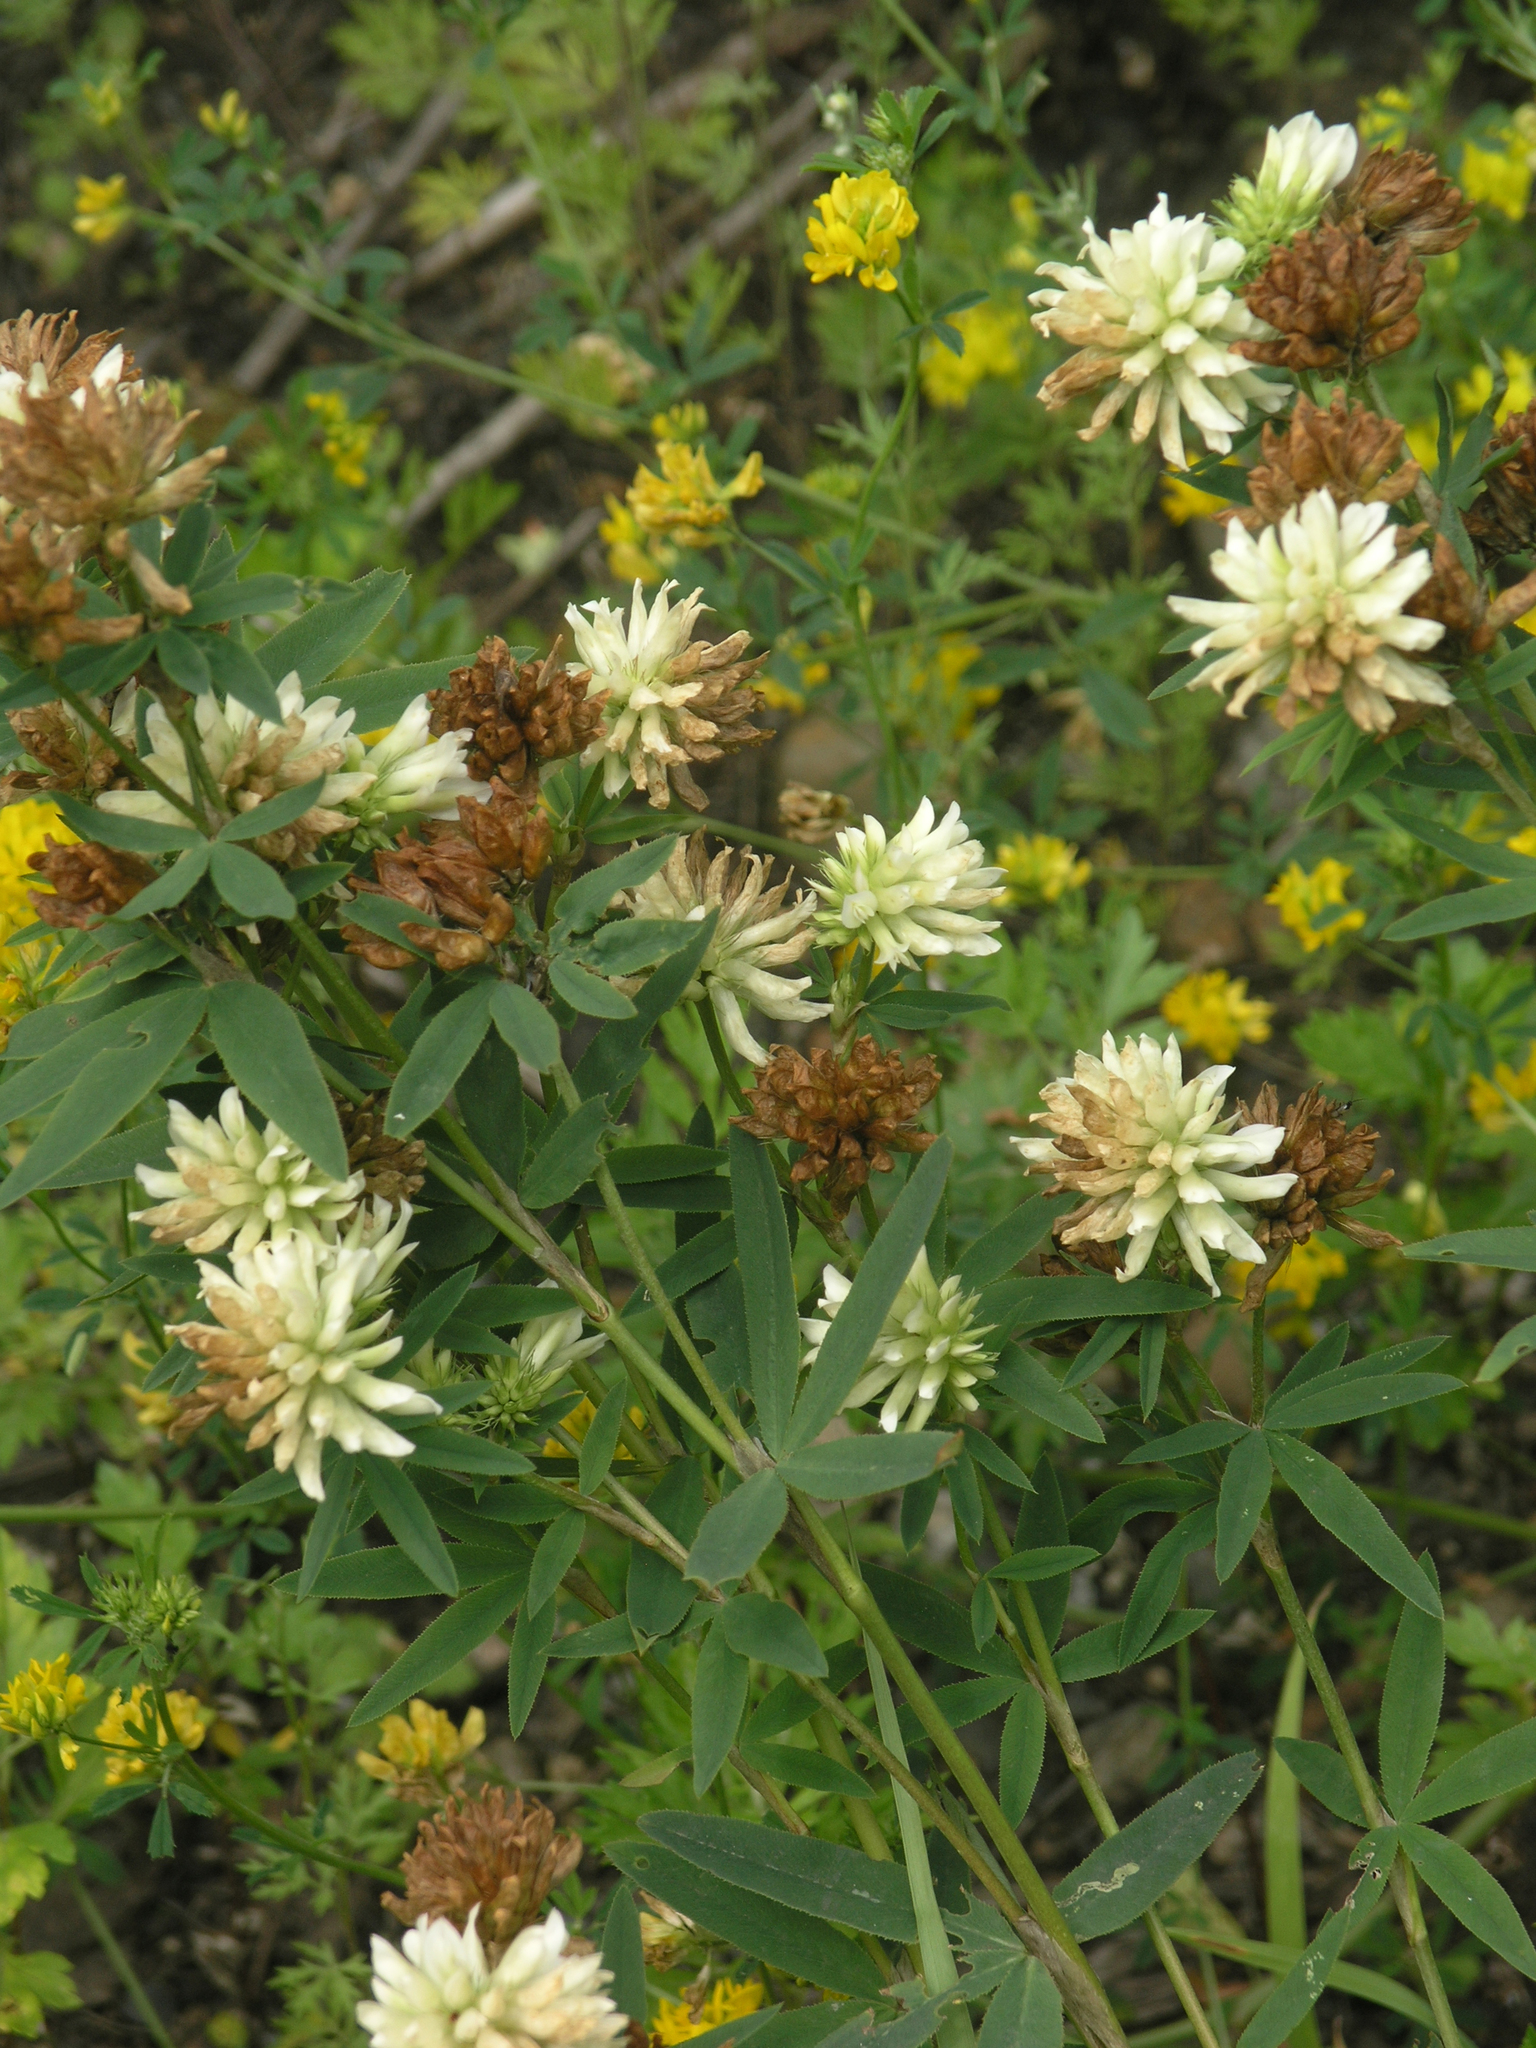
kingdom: Plantae
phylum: Tracheophyta
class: Magnoliopsida
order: Fabales
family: Fabaceae
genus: Trifolium
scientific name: Trifolium lupinaster
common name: Lupine clover
